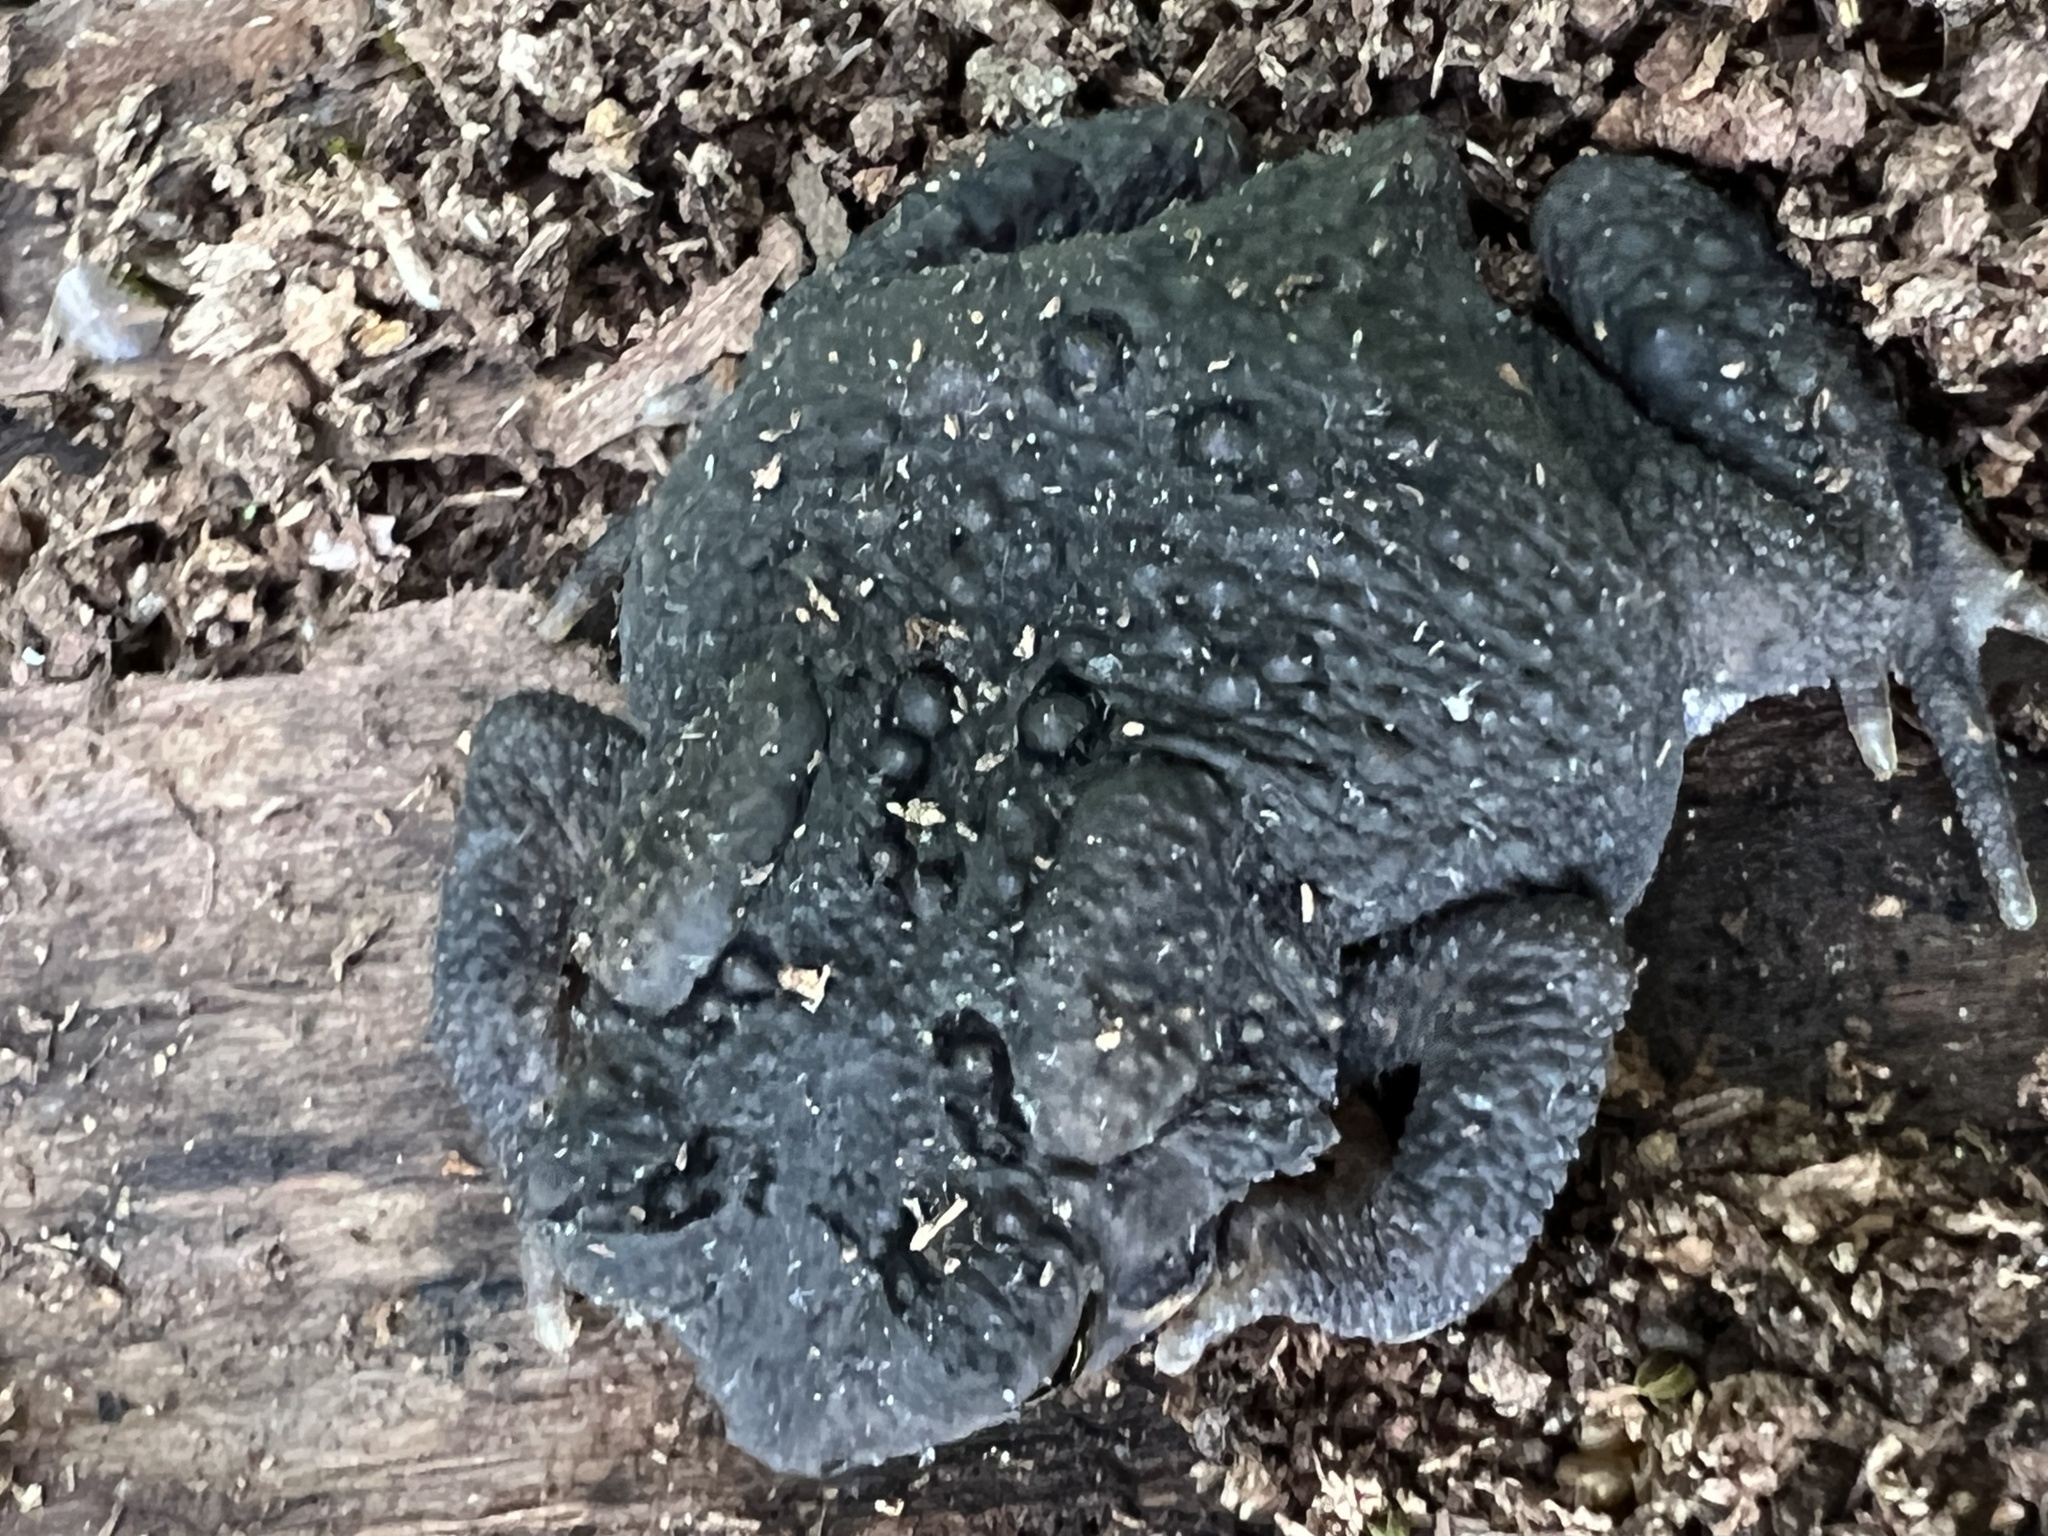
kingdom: Animalia
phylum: Chordata
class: Amphibia
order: Anura
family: Bufonidae
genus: Anaxyrus
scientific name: Anaxyrus americanus
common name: American toad
